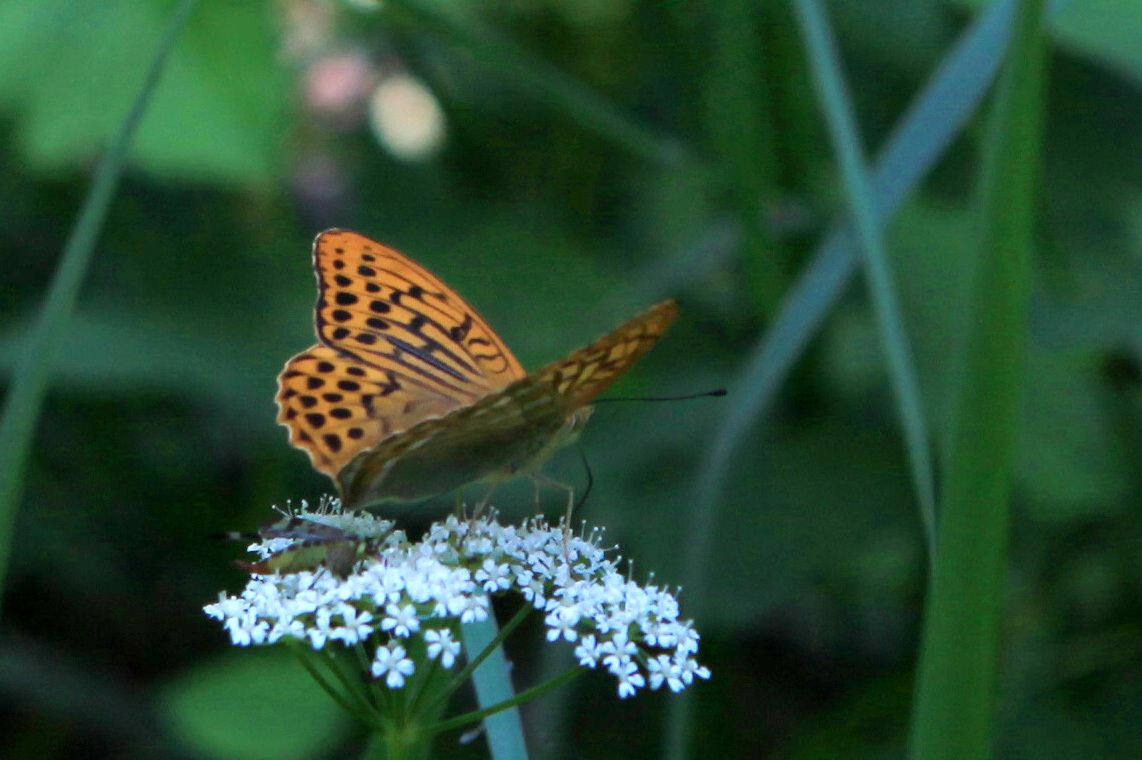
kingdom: Animalia
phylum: Arthropoda
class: Insecta
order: Lepidoptera
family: Nymphalidae
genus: Argynnis
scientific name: Argynnis paphia
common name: Silver-washed fritillary
